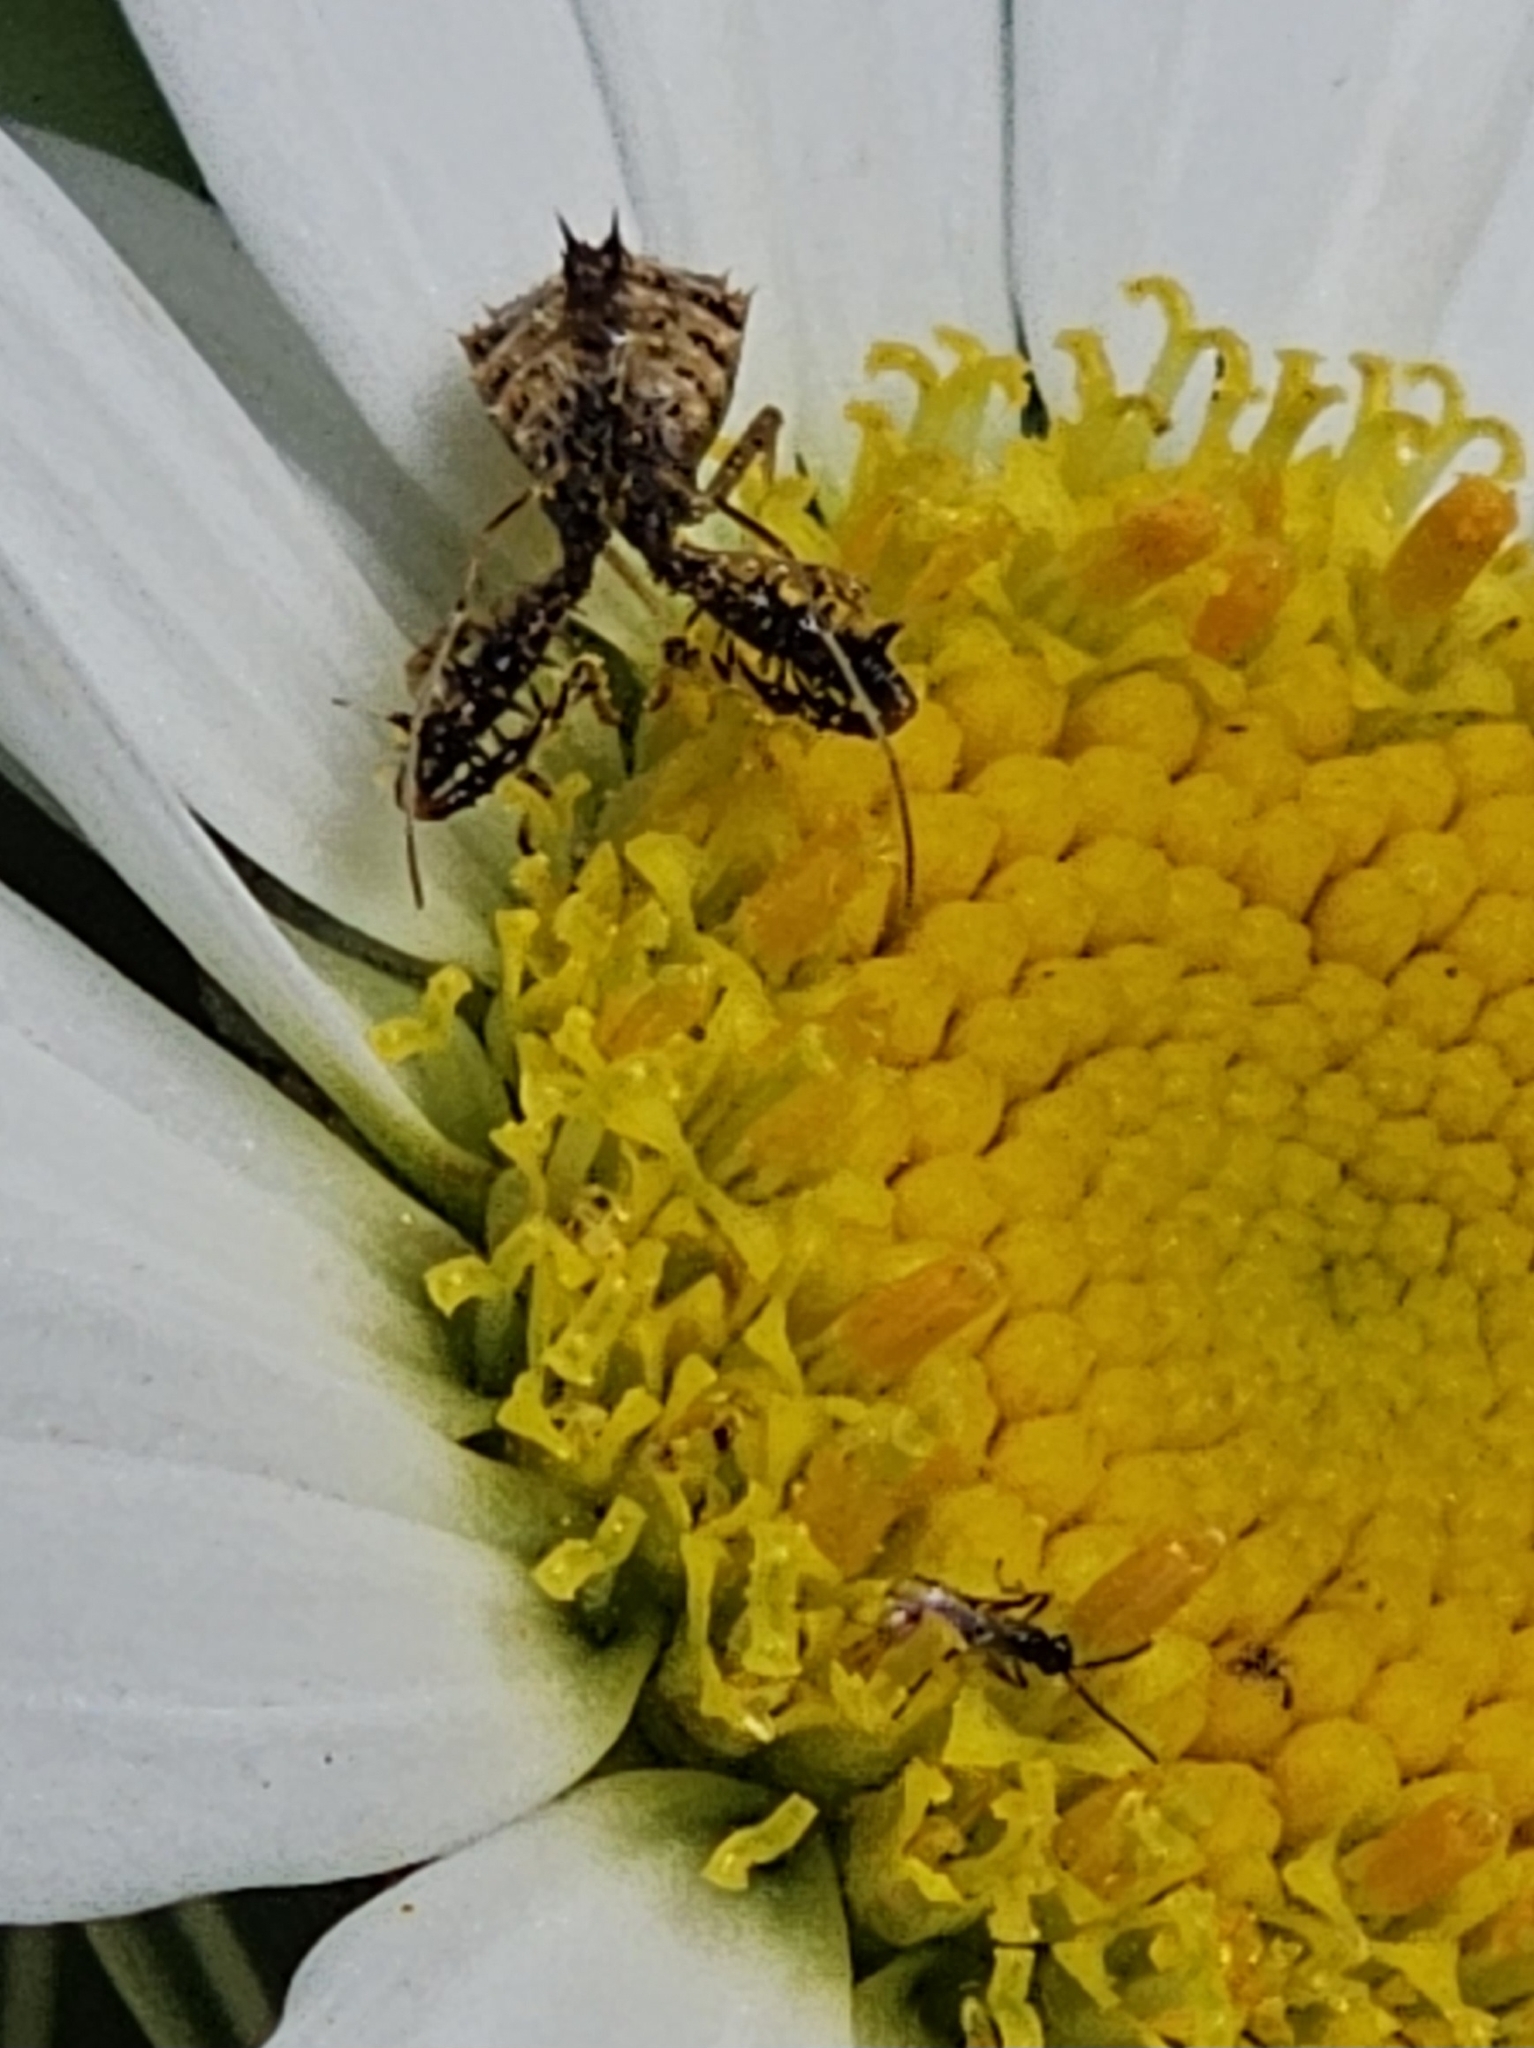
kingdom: Animalia
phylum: Arthropoda
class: Insecta
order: Hemiptera
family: Reduviidae
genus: Sinea
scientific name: Sinea spinipes
